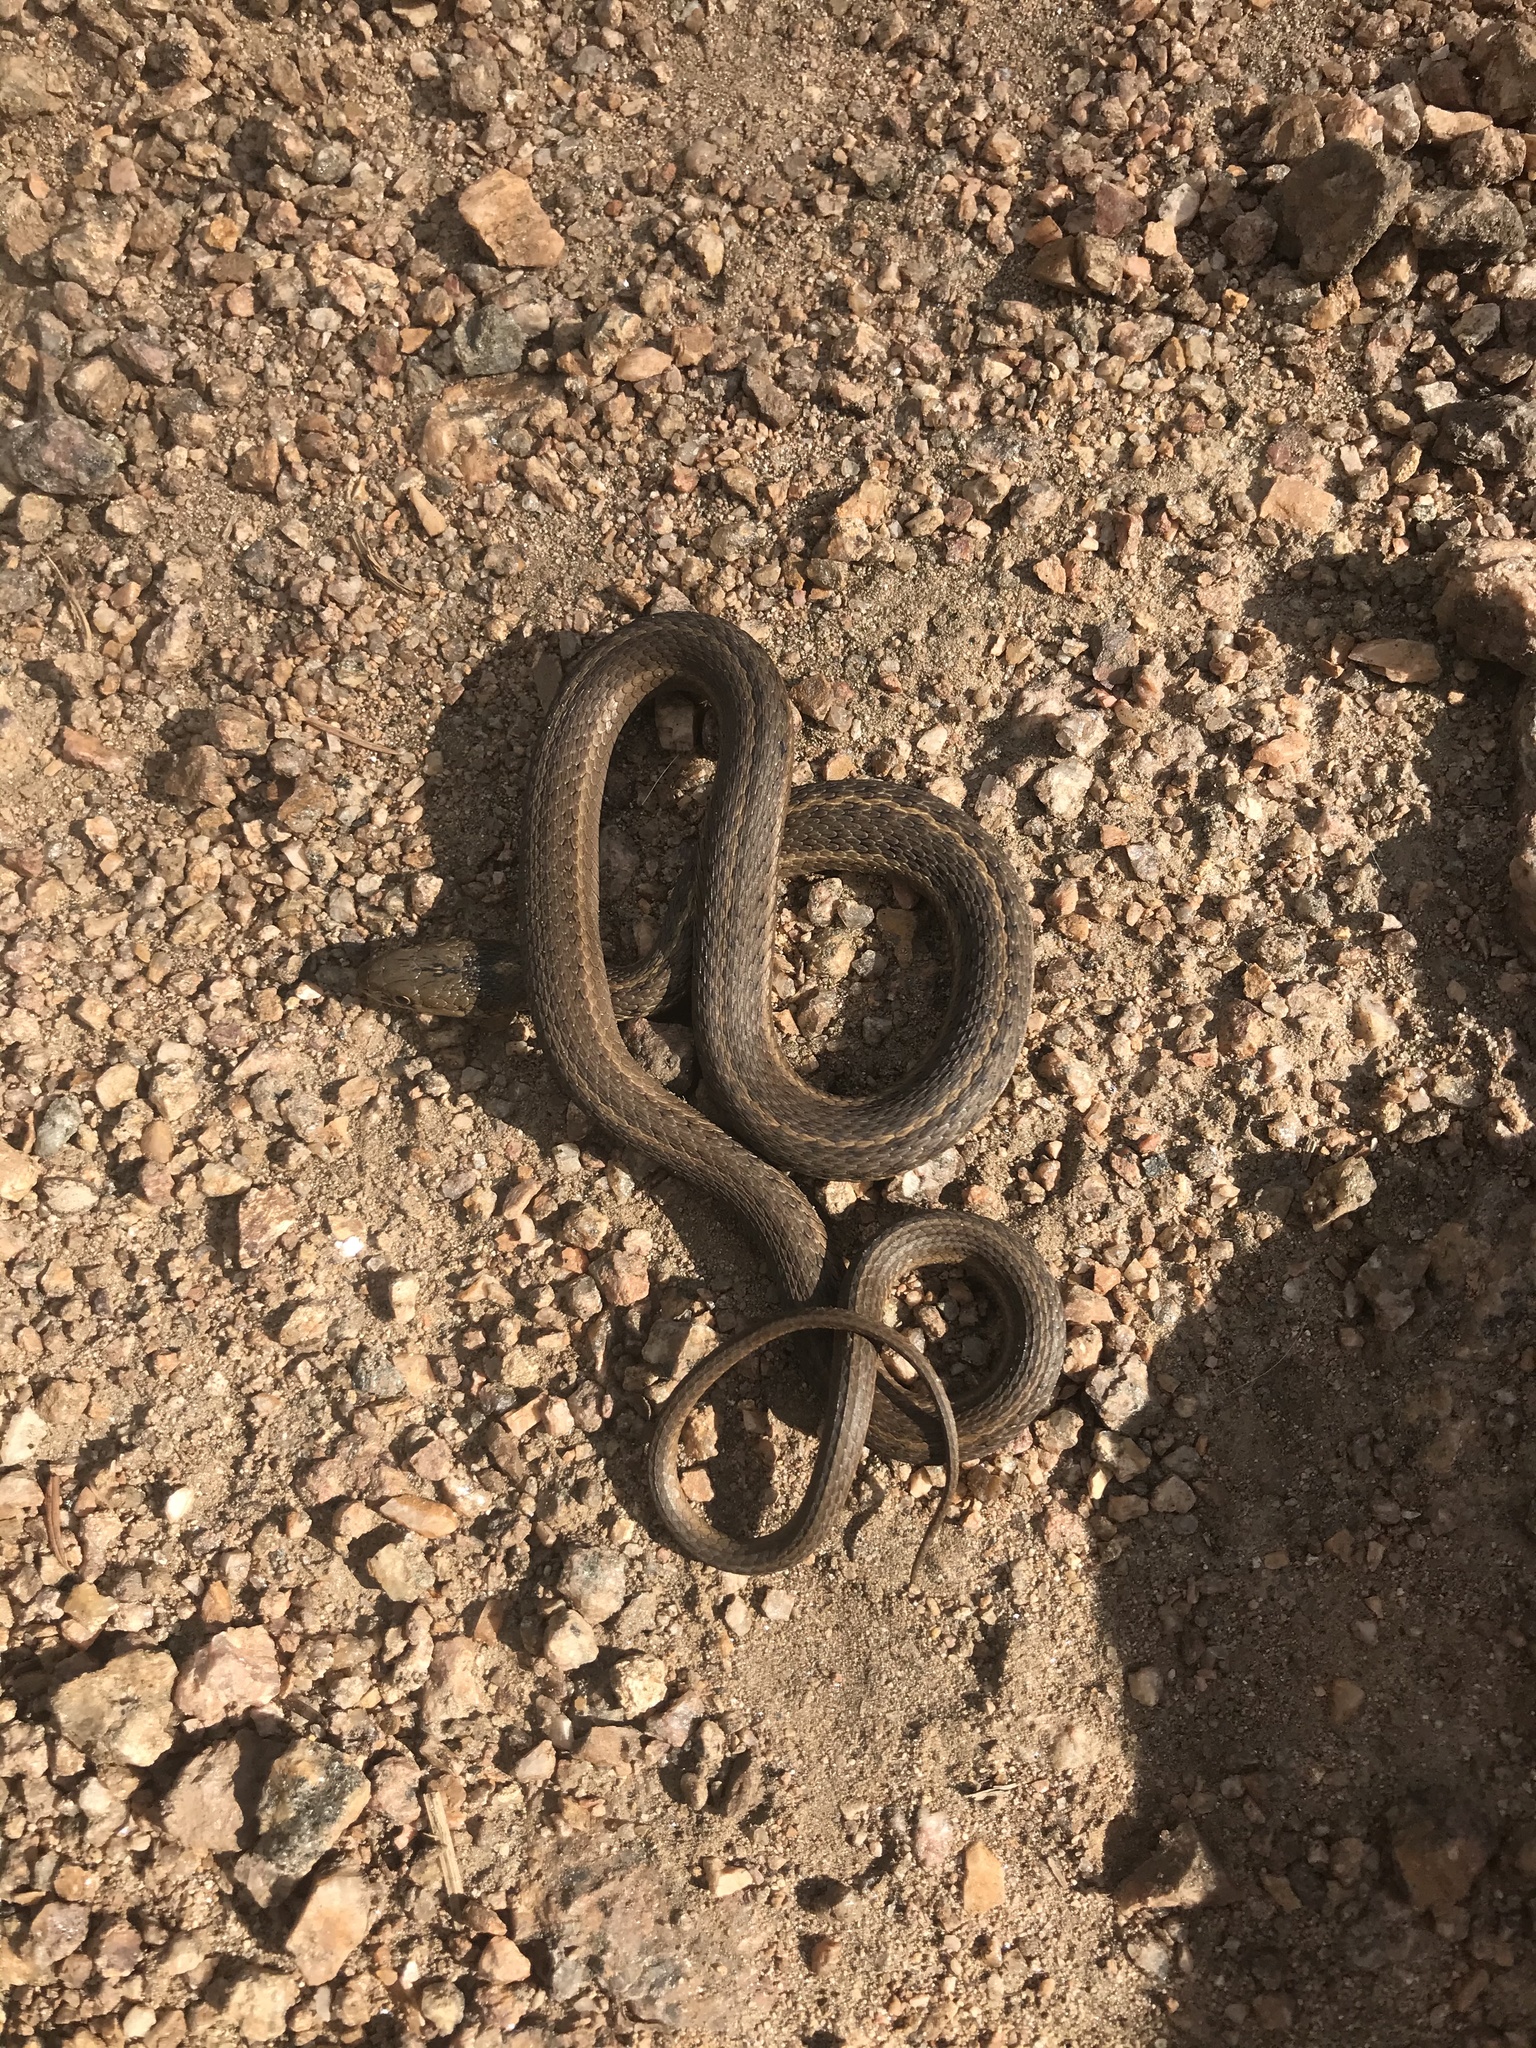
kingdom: Animalia
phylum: Chordata
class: Squamata
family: Colubridae
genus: Thamnophis
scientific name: Thamnophis elegans
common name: Western terrestrial garter snake
